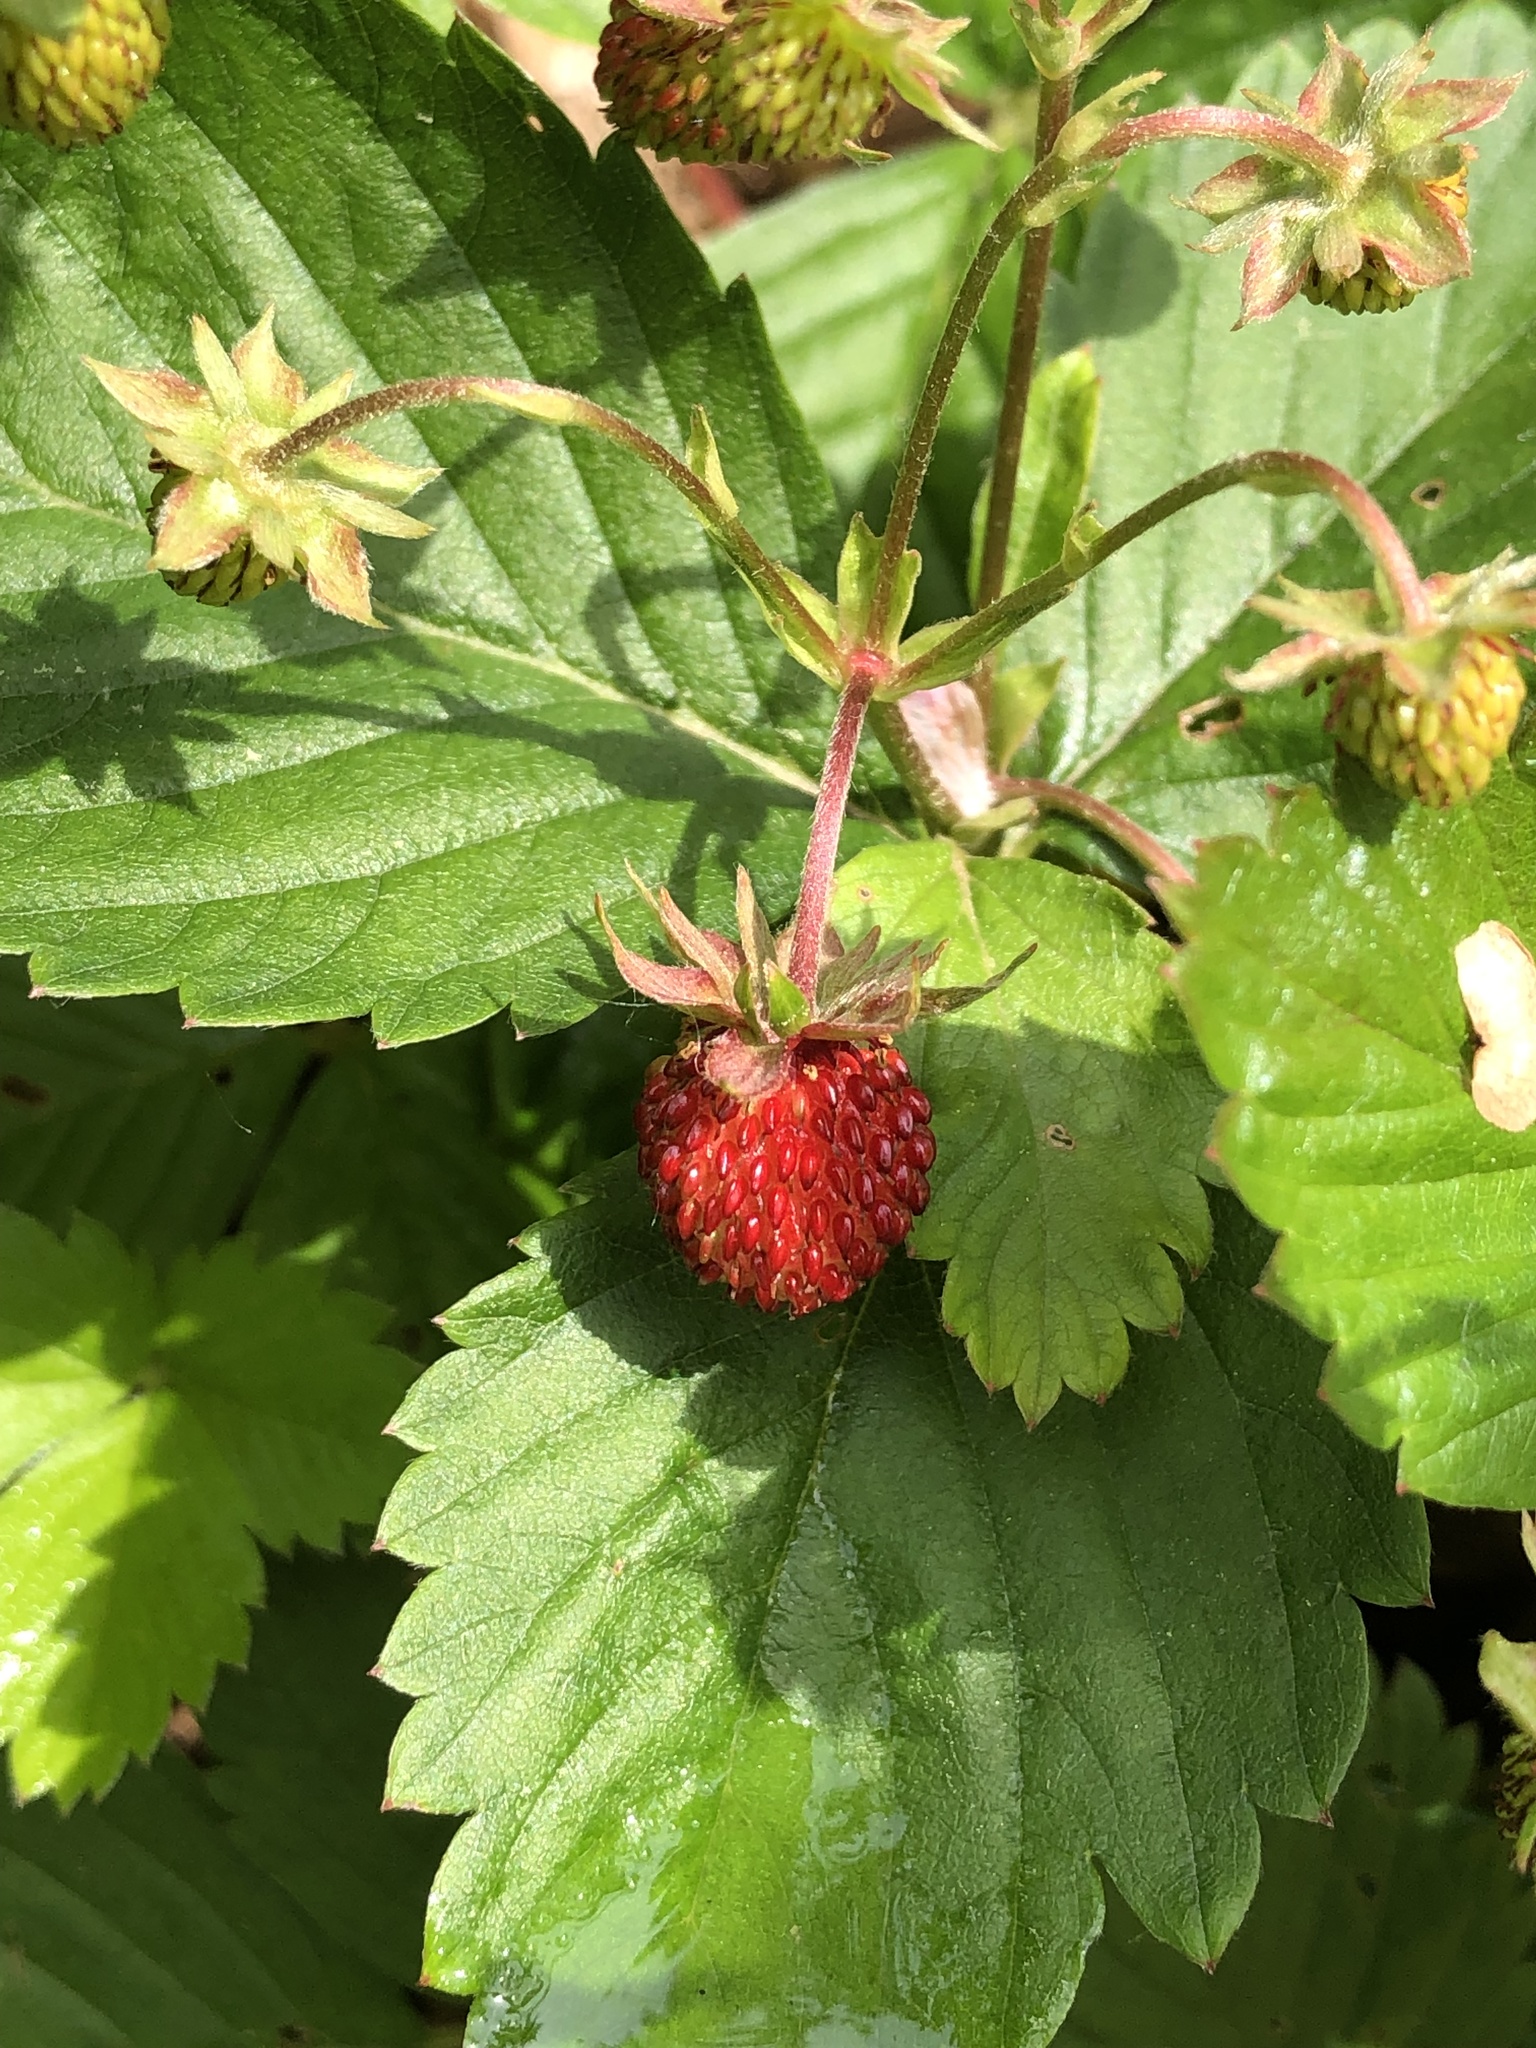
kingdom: Plantae
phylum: Tracheophyta
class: Magnoliopsida
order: Rosales
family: Rosaceae
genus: Fragaria
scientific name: Fragaria vesca
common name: Wild strawberry
